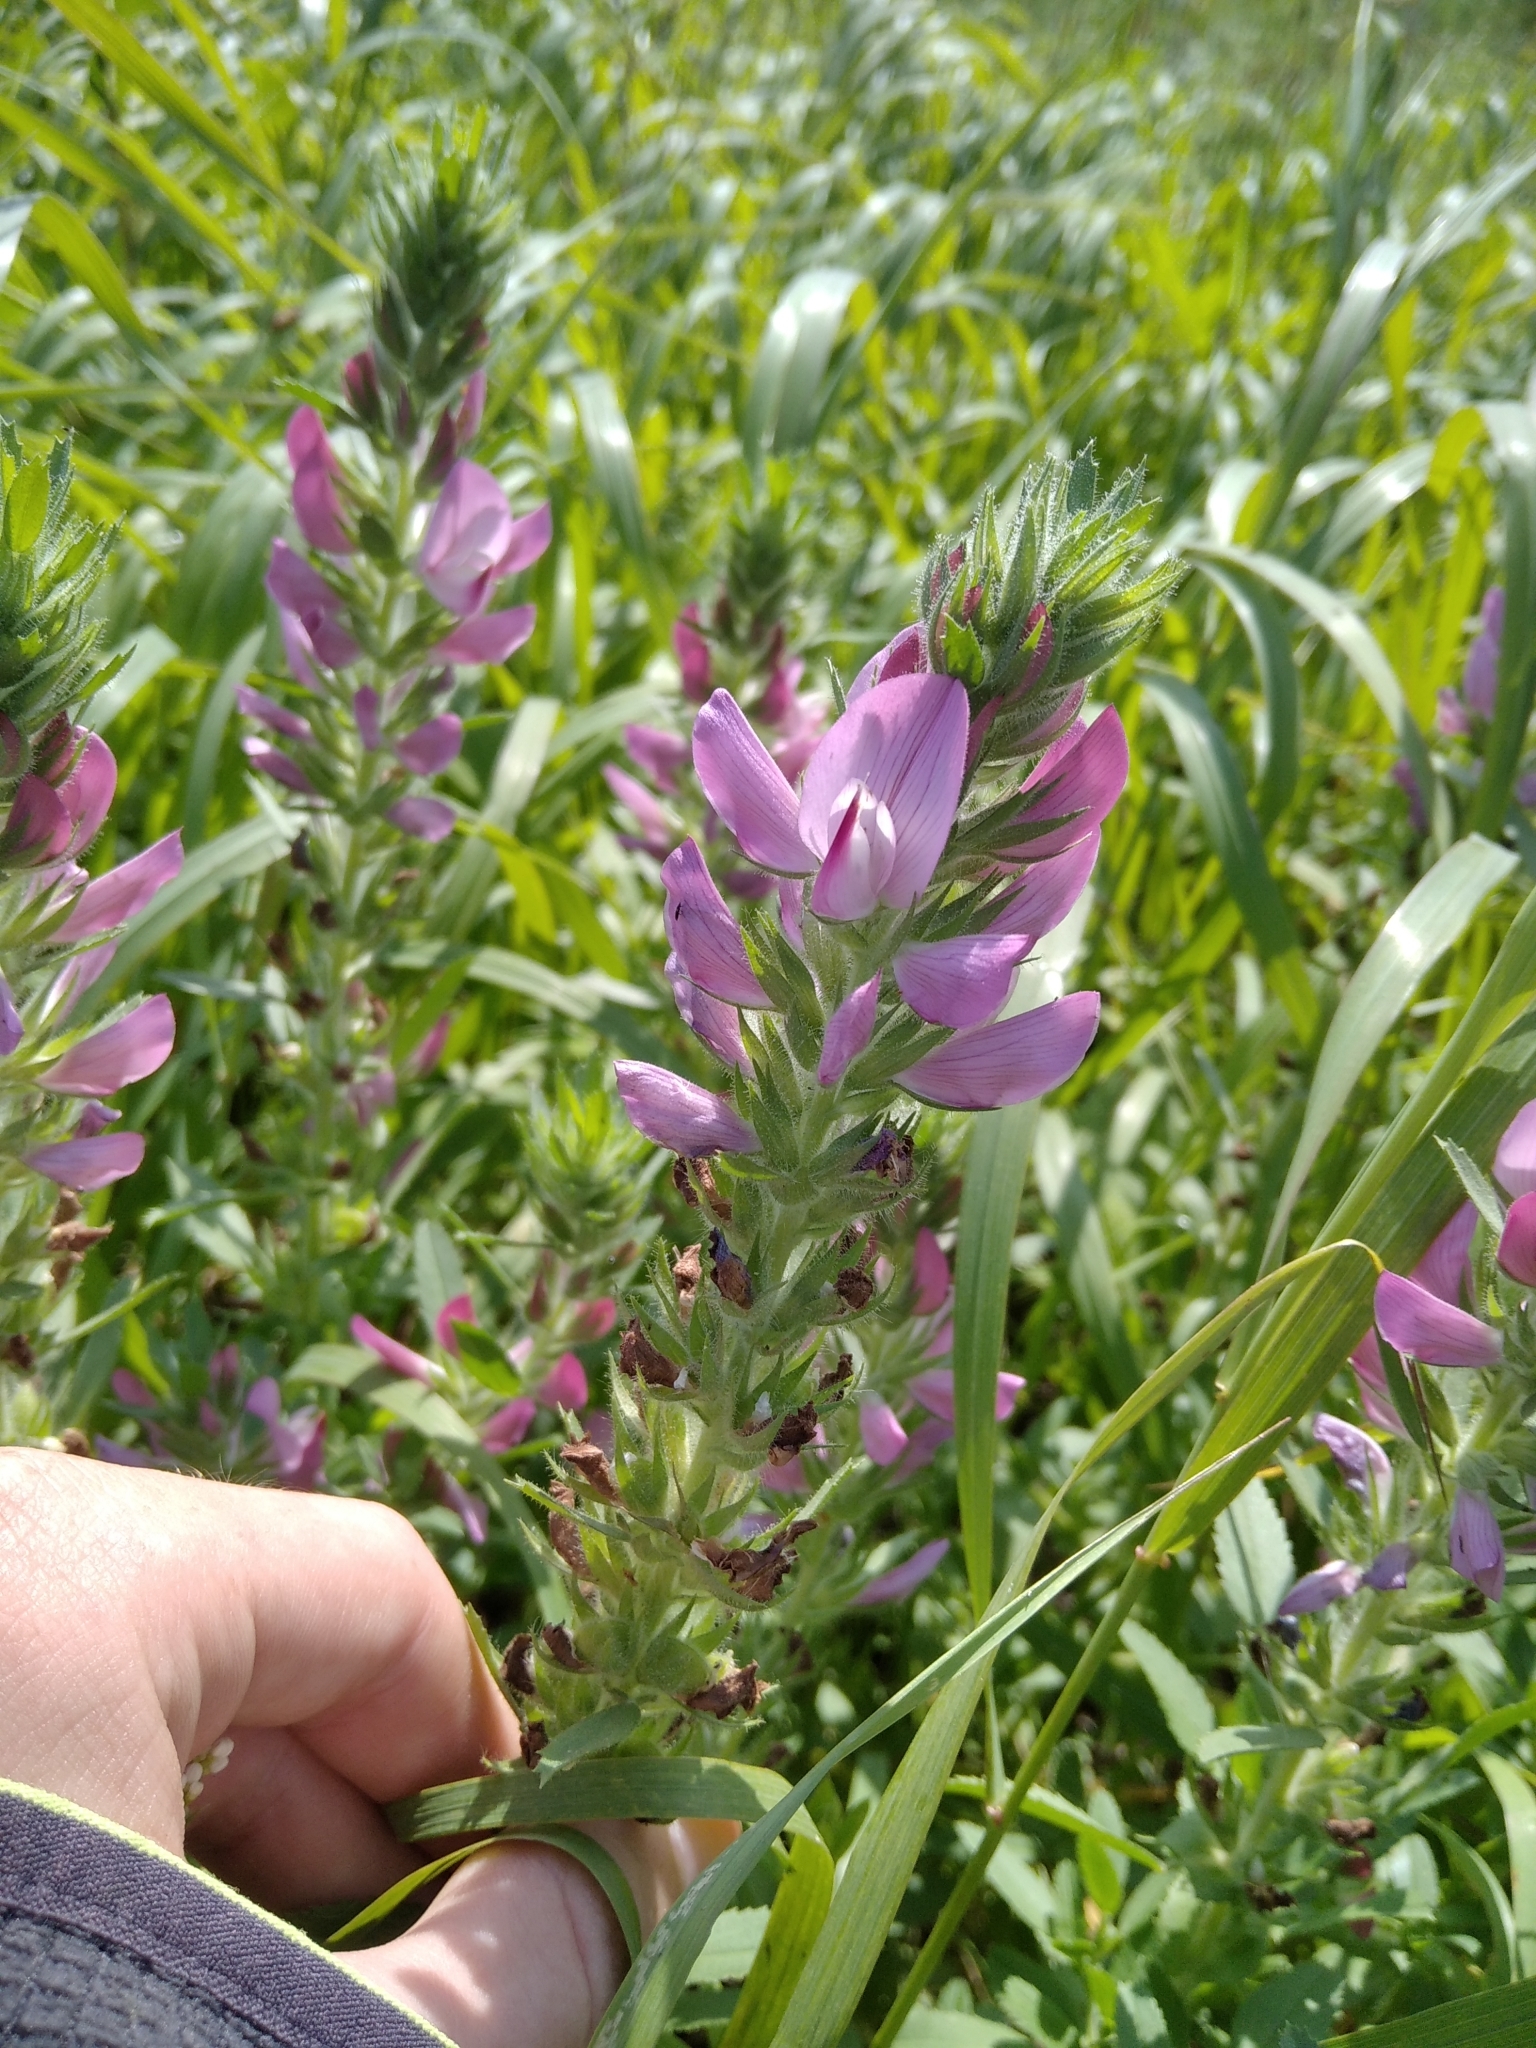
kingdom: Plantae
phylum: Tracheophyta
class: Magnoliopsida
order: Fabales
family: Fabaceae
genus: Ononis
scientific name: Ononis arvensis
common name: Field restharrow
